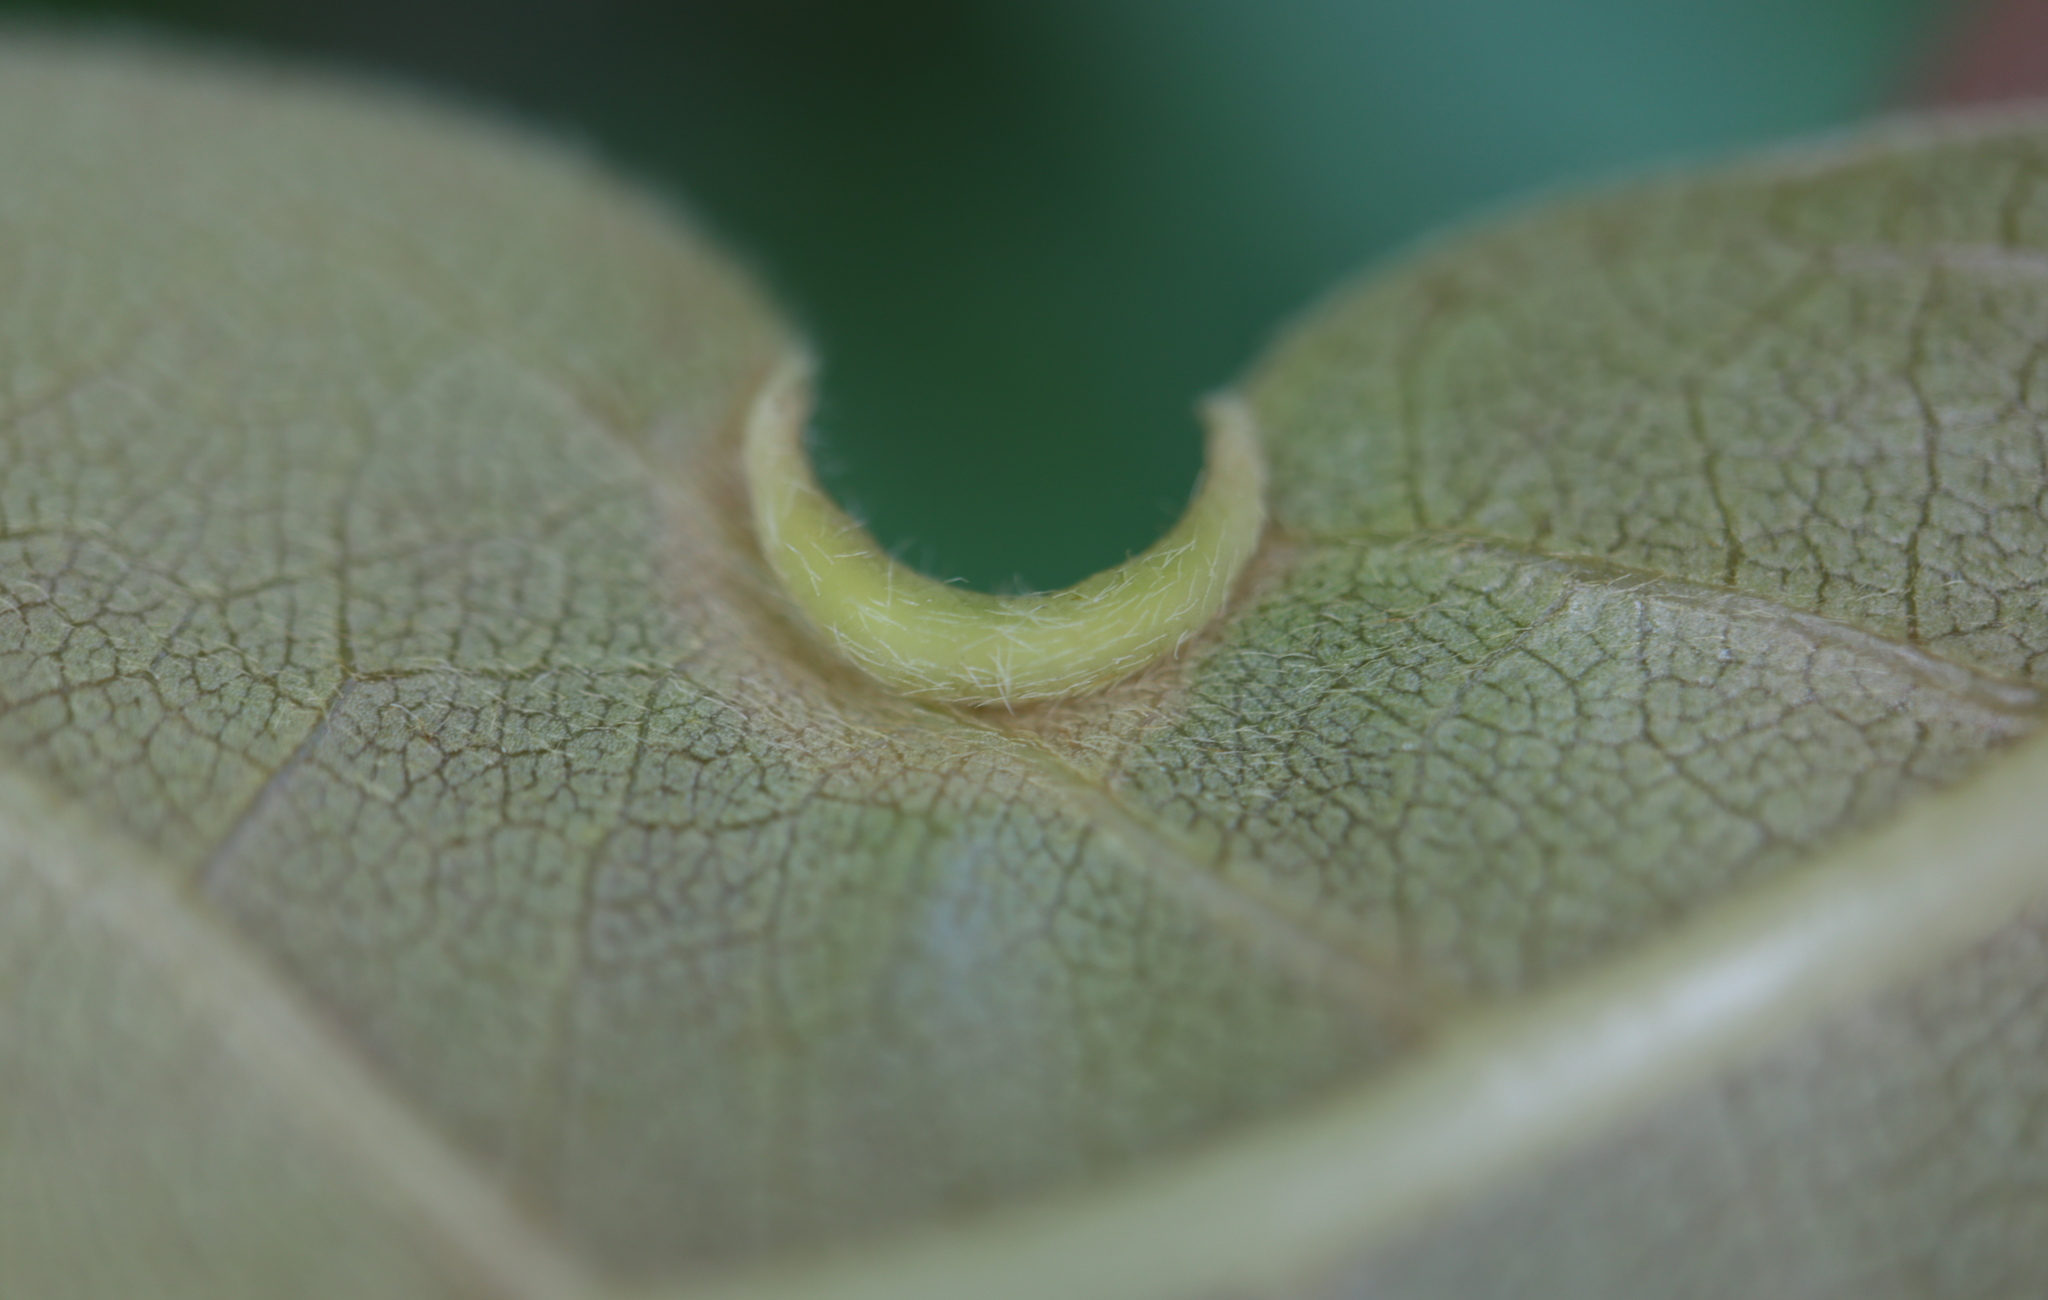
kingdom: Animalia
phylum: Arthropoda
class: Insecta
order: Hemiptera
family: Phylloxeridae
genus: Phylloxerina
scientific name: Phylloxerina nyssae
